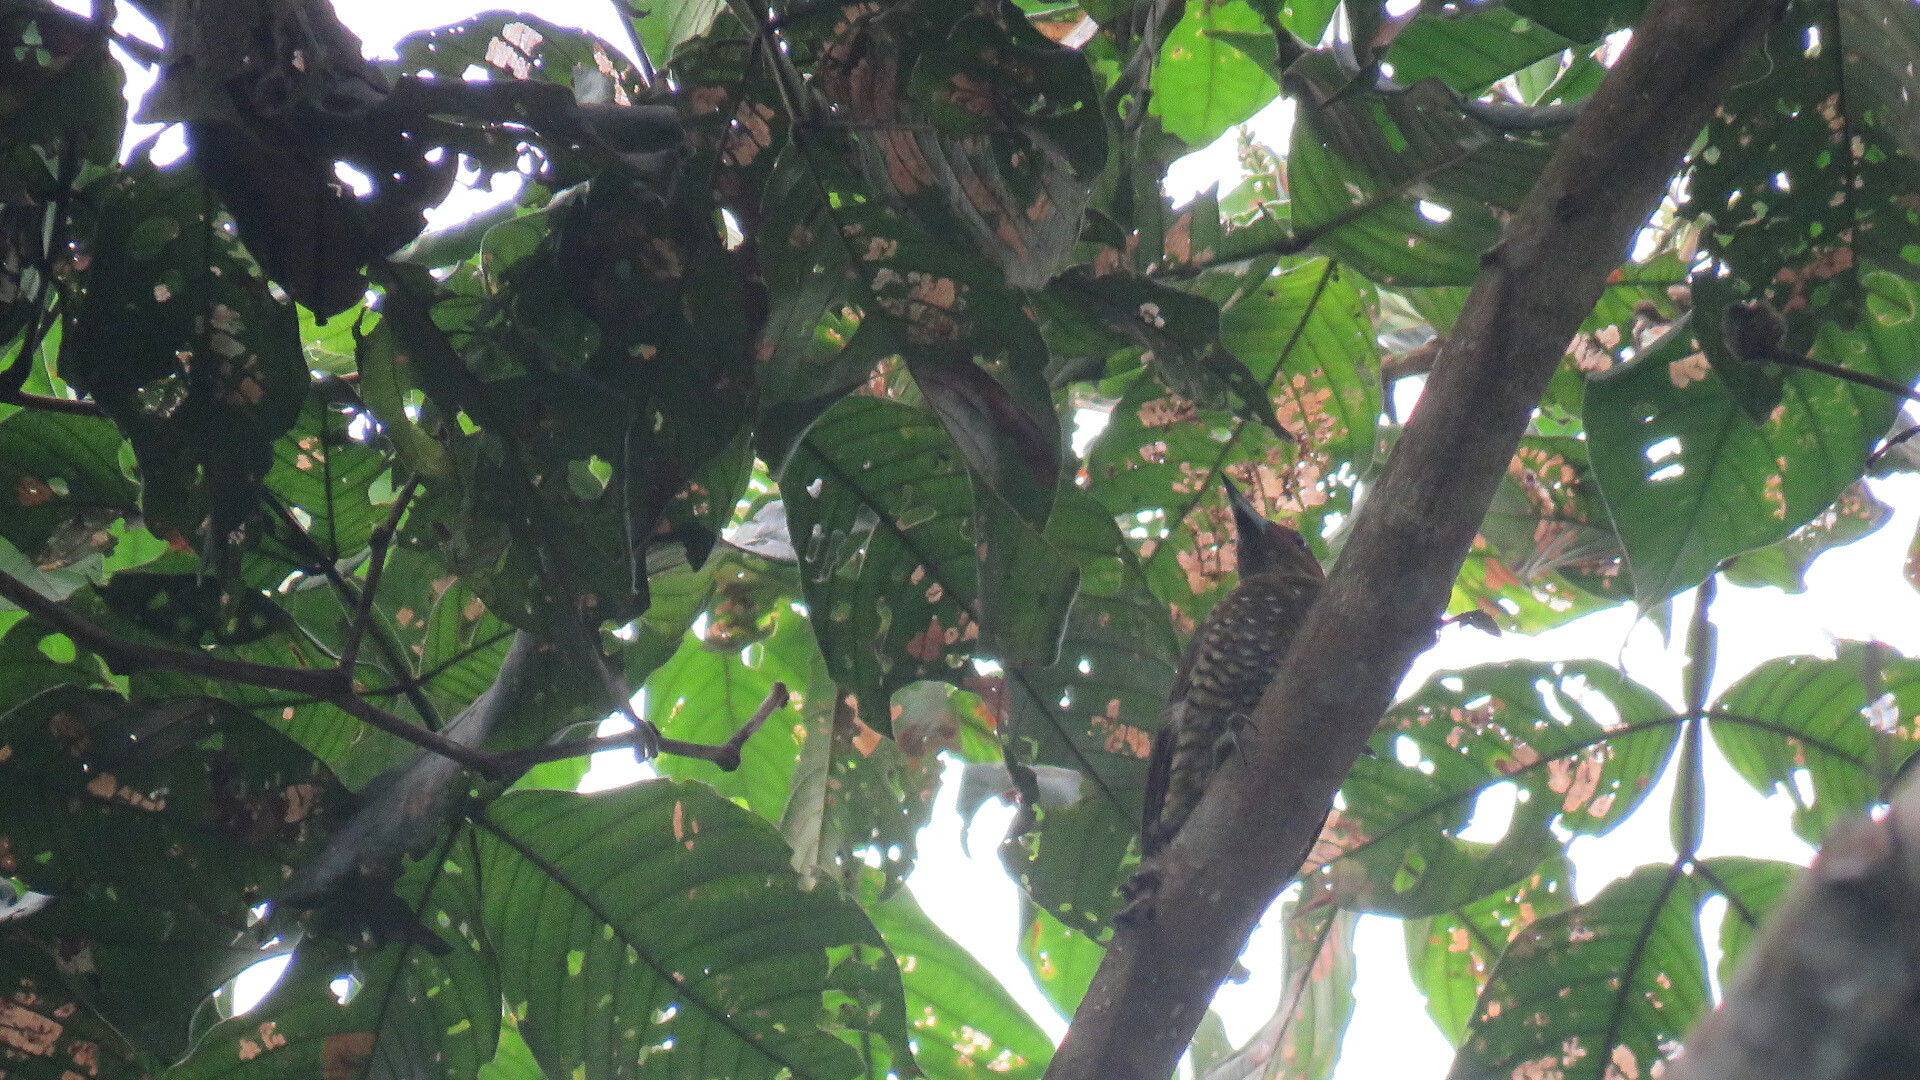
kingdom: Animalia
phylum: Chordata
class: Aves
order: Piciformes
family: Picidae
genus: Piculus
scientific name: Piculus simplex
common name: Rufous-winged woodpecker
